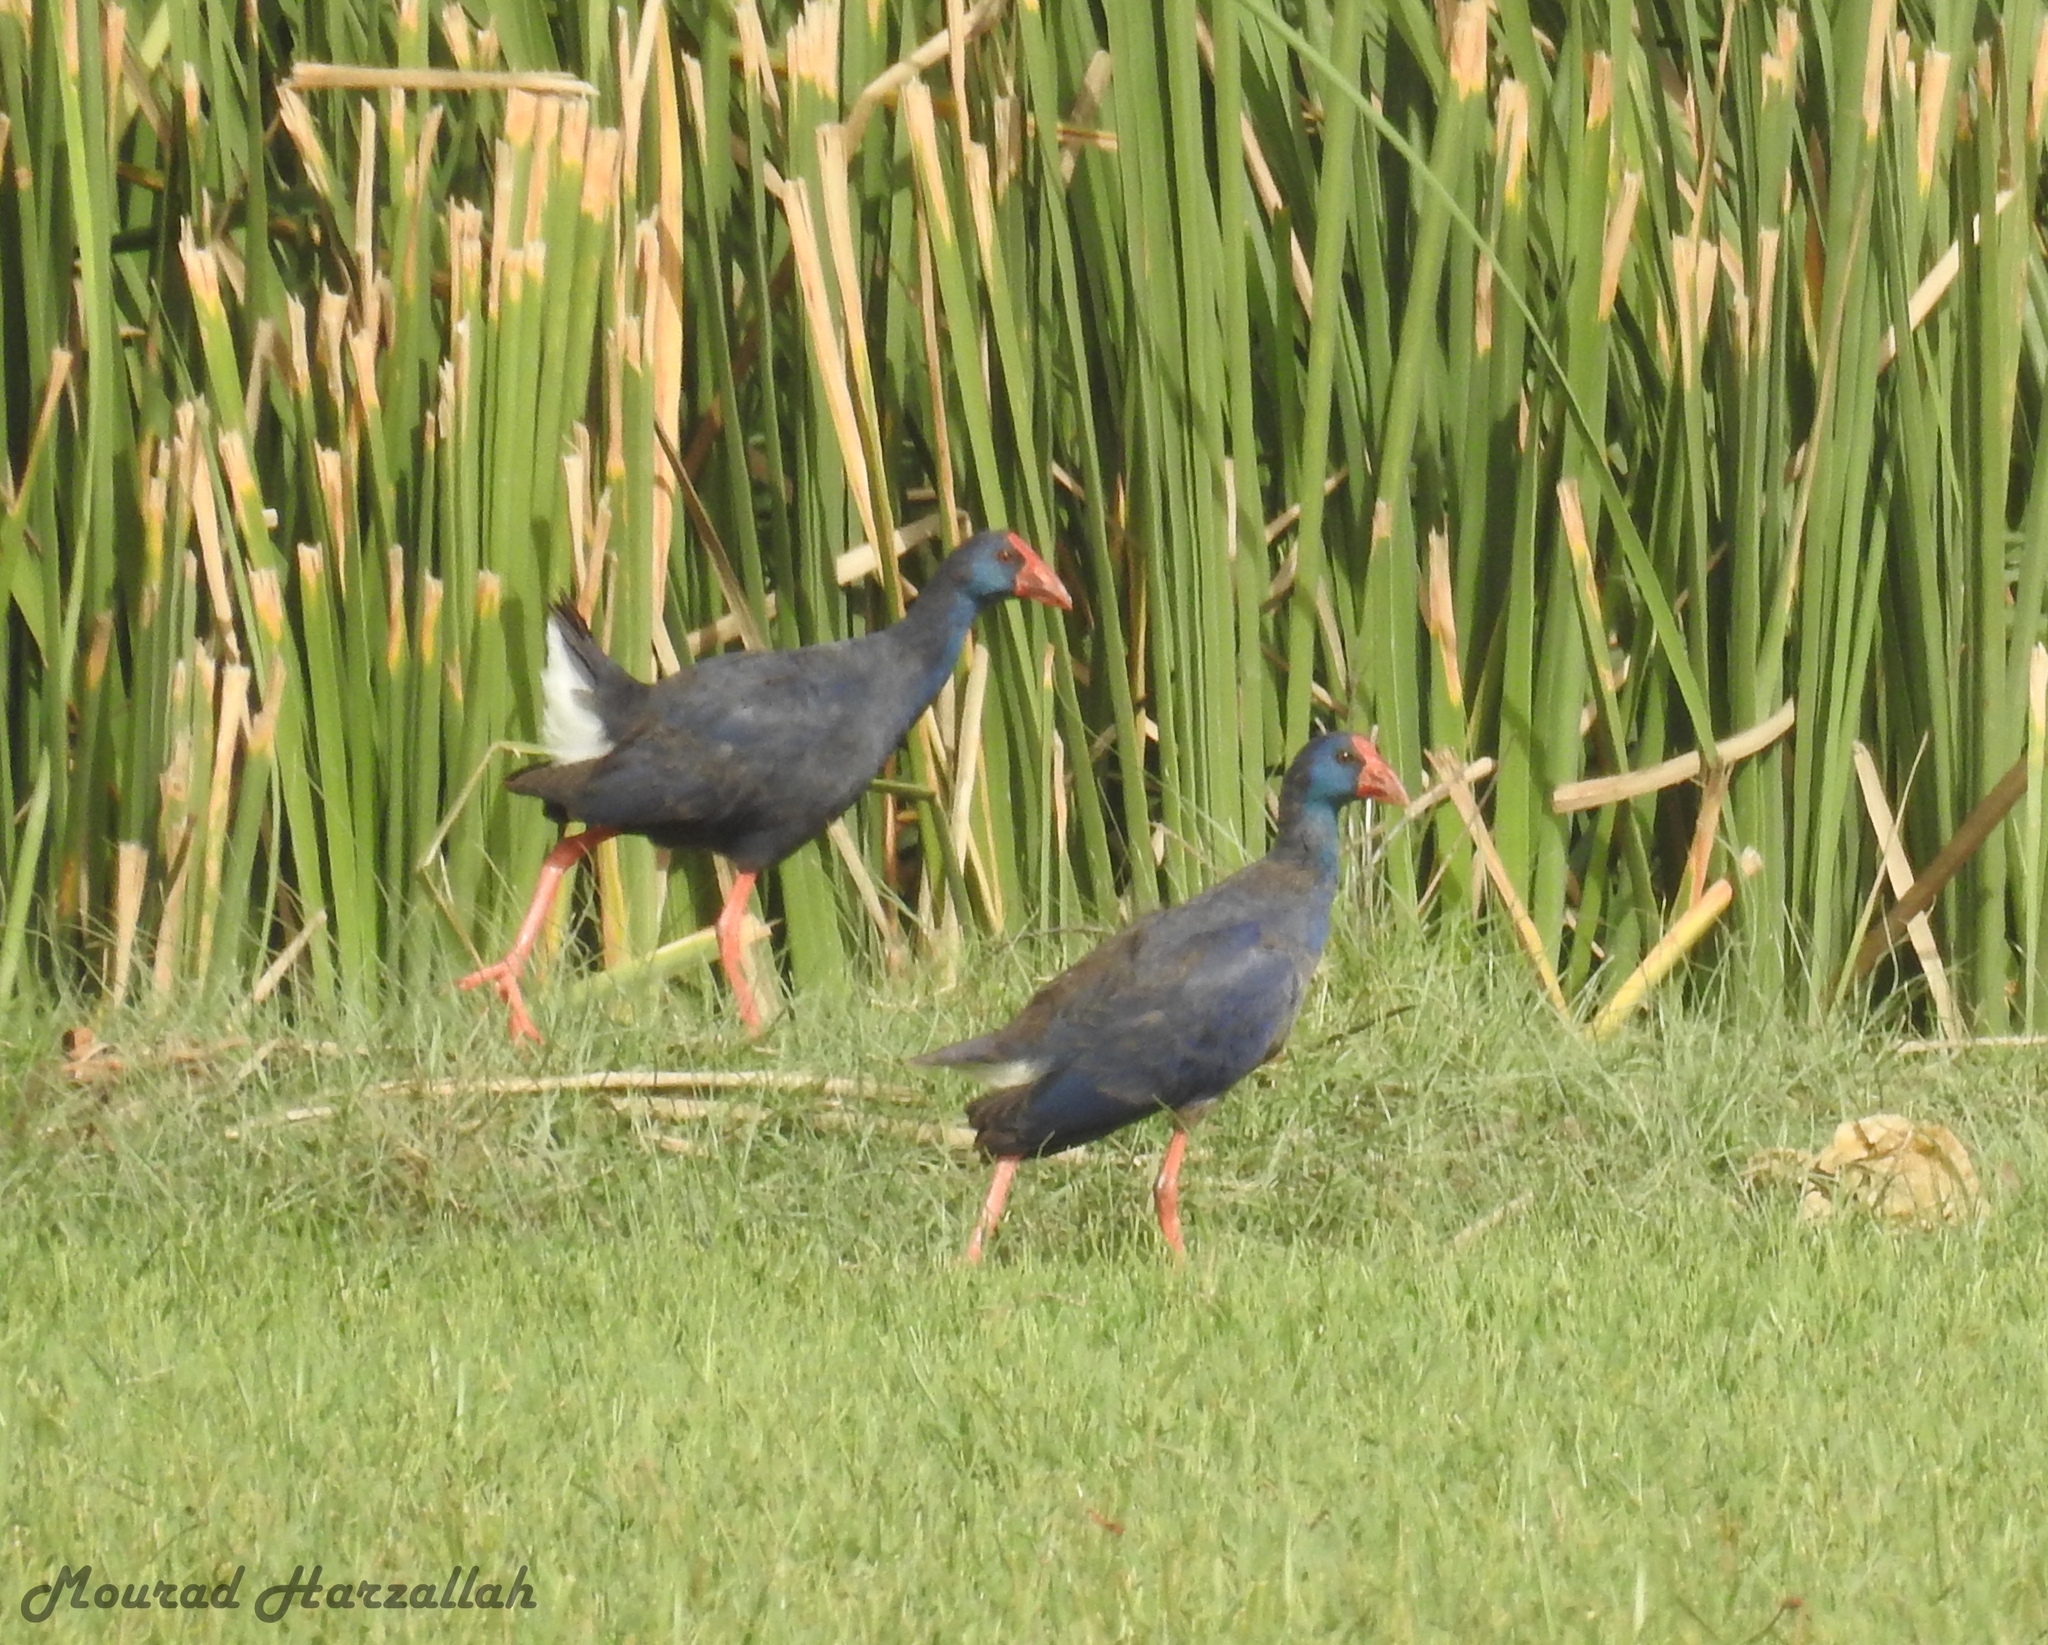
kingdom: Animalia
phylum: Chordata
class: Aves
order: Gruiformes
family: Rallidae
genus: Porphyrio
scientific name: Porphyrio porphyrio
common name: Purple swamphen
